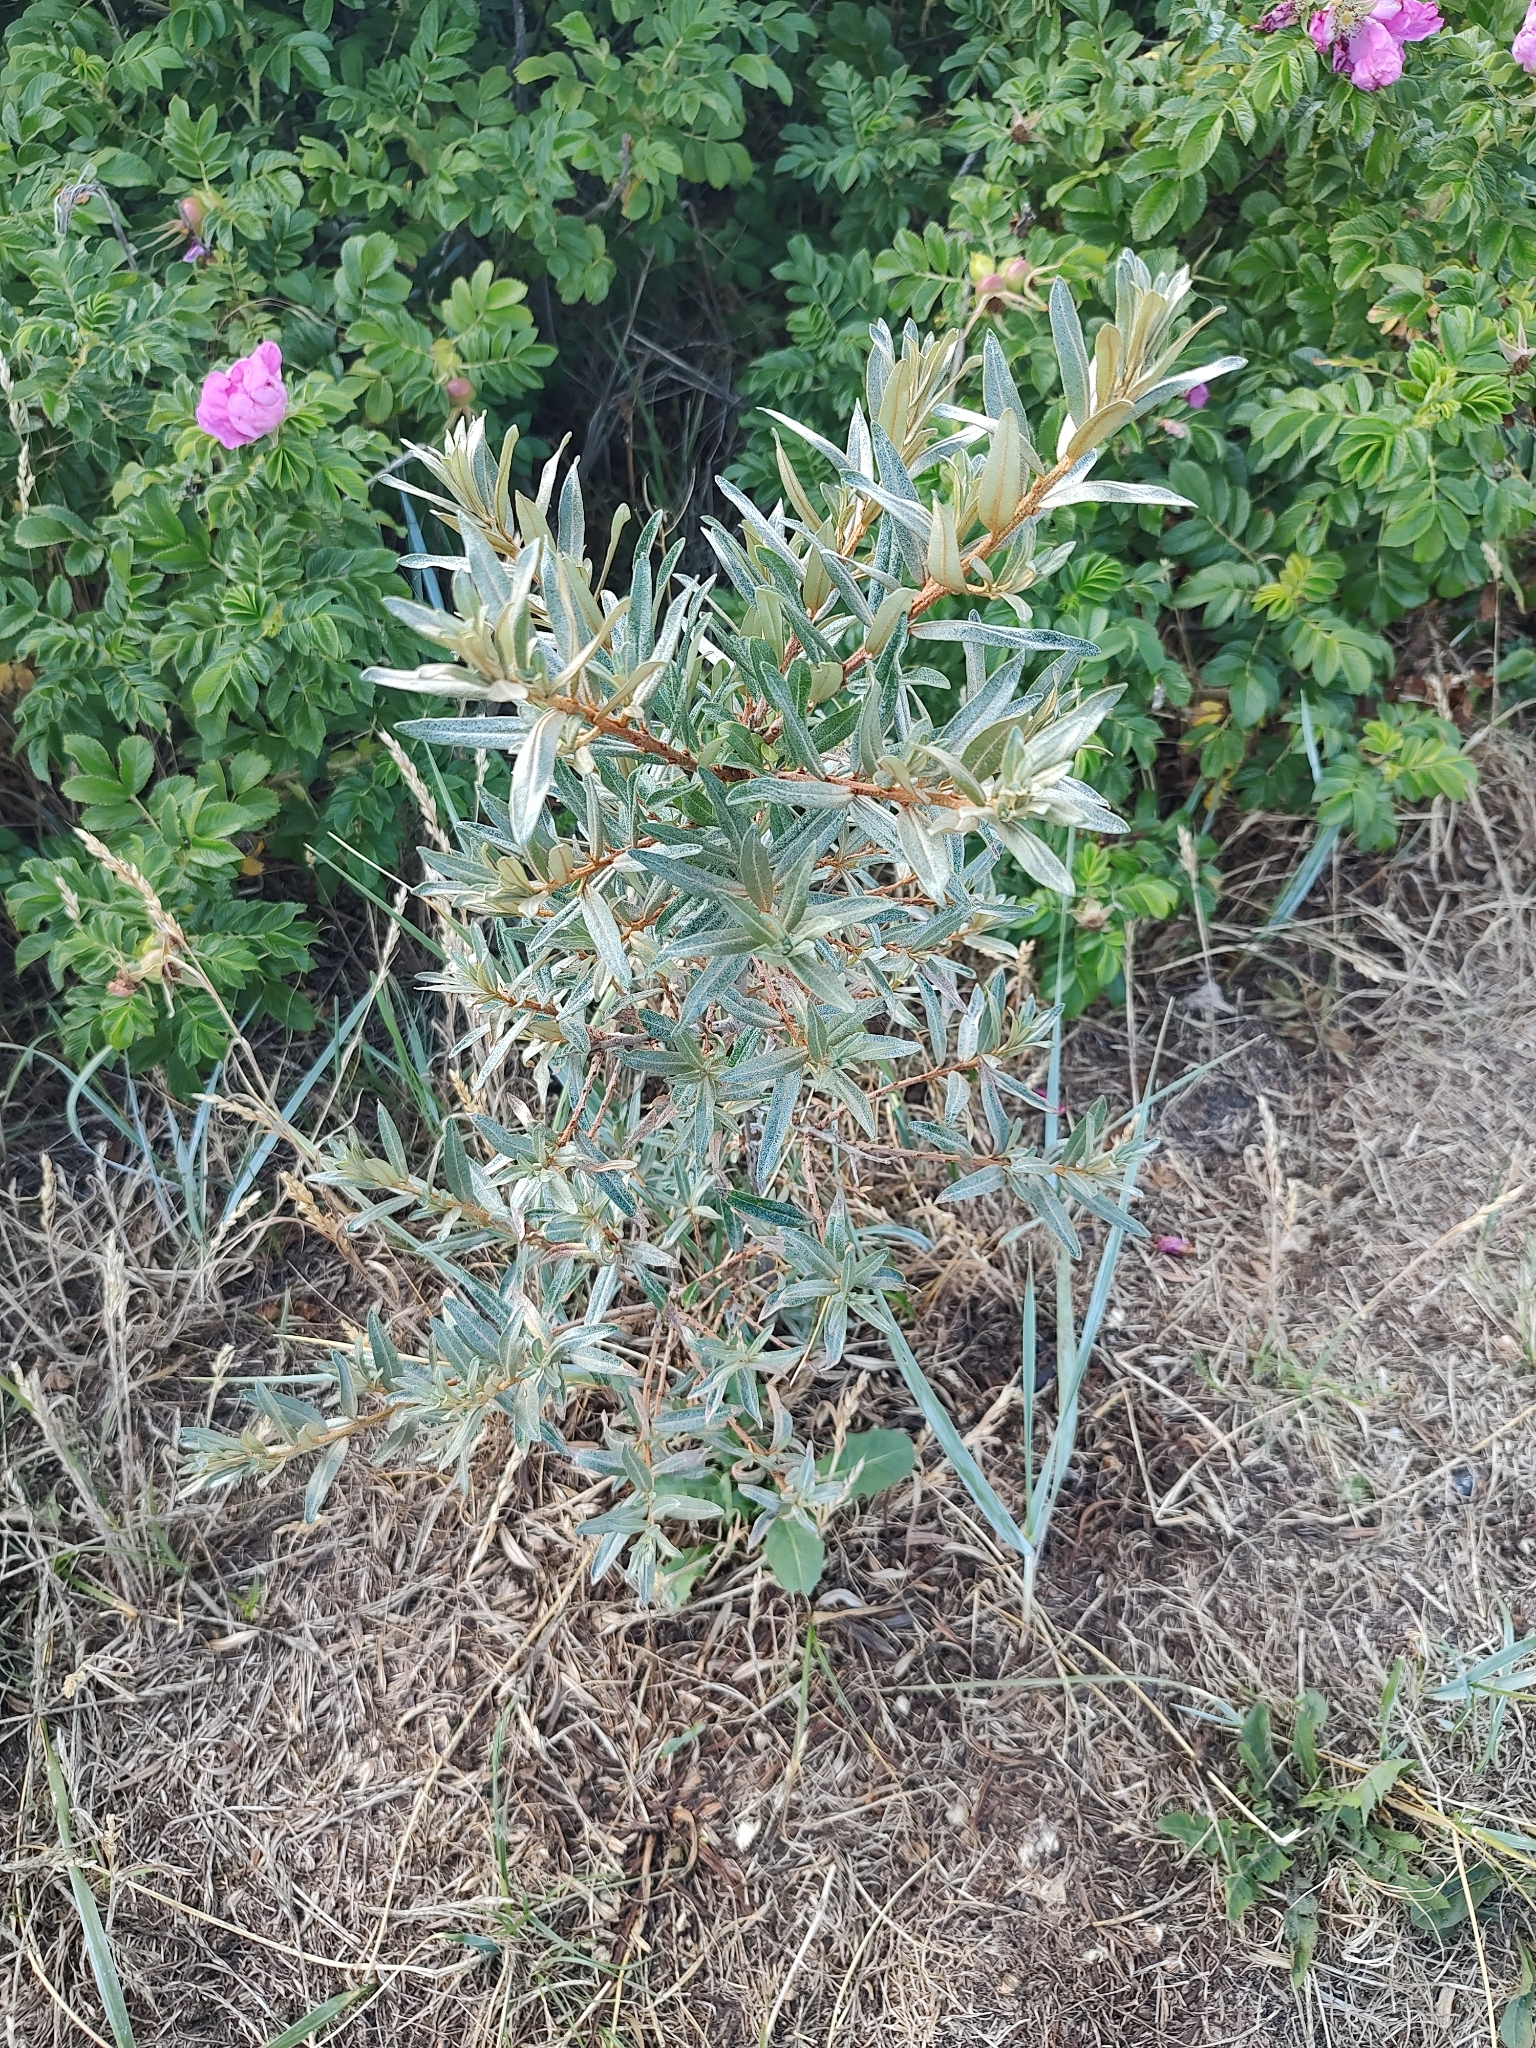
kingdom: Plantae
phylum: Tracheophyta
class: Magnoliopsida
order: Rosales
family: Elaeagnaceae
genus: Hippophae
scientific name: Hippophae rhamnoides
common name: Sea-buckthorn
